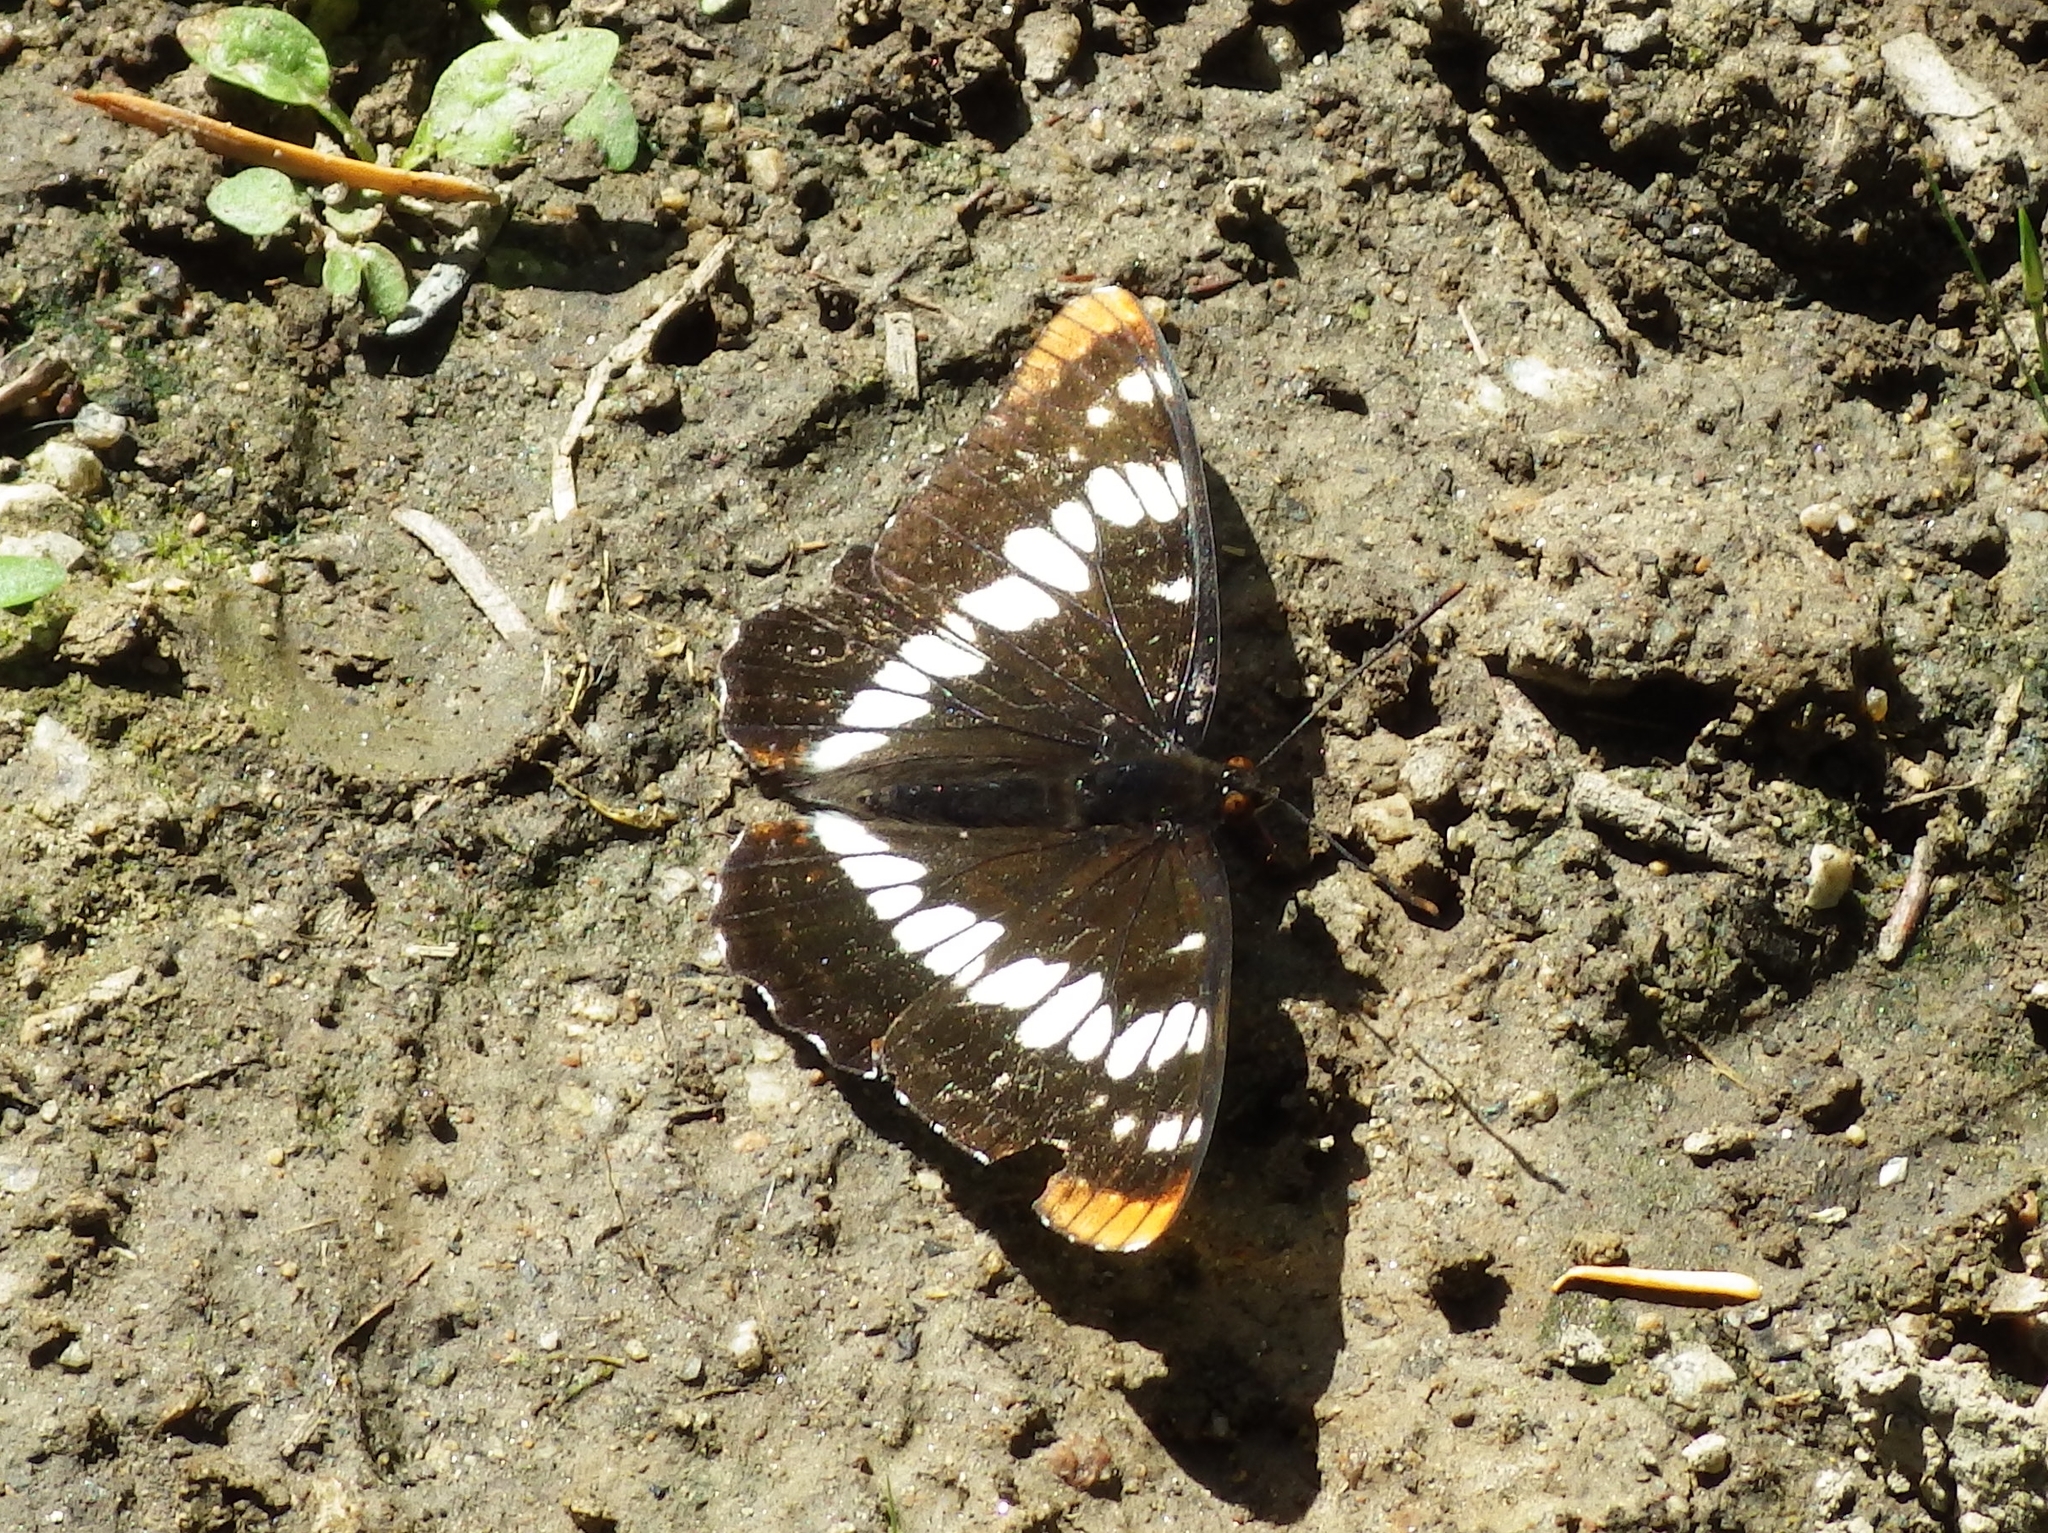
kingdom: Animalia
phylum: Arthropoda
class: Insecta
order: Lepidoptera
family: Nymphalidae
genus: Limenitis
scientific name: Limenitis lorquini
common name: Lorquin's admiral
